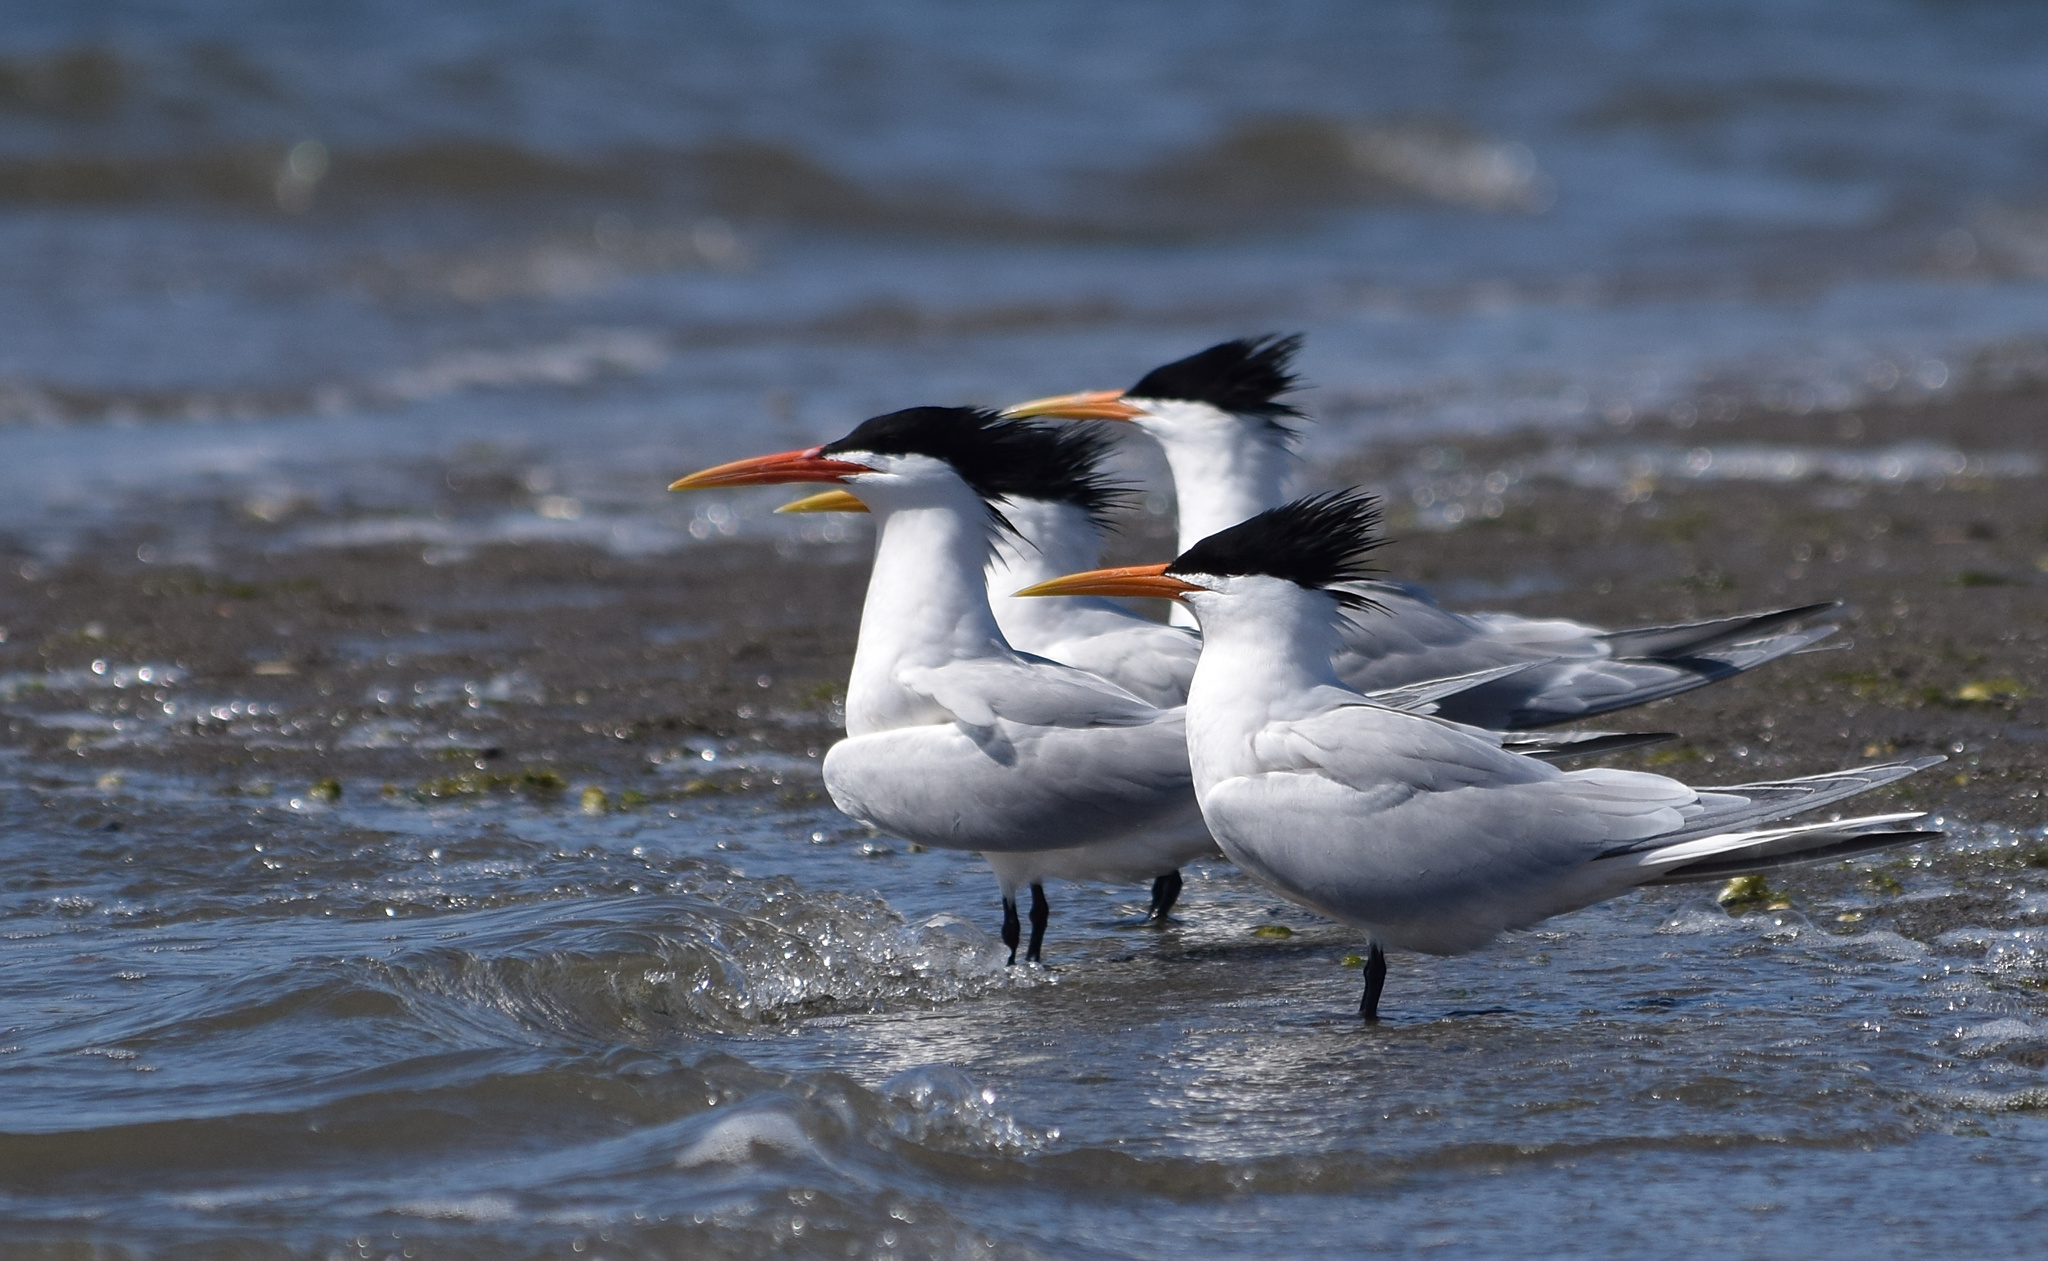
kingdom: Animalia
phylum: Chordata
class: Aves
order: Charadriiformes
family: Laridae
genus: Thalasseus
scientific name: Thalasseus elegans
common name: Elegant tern
